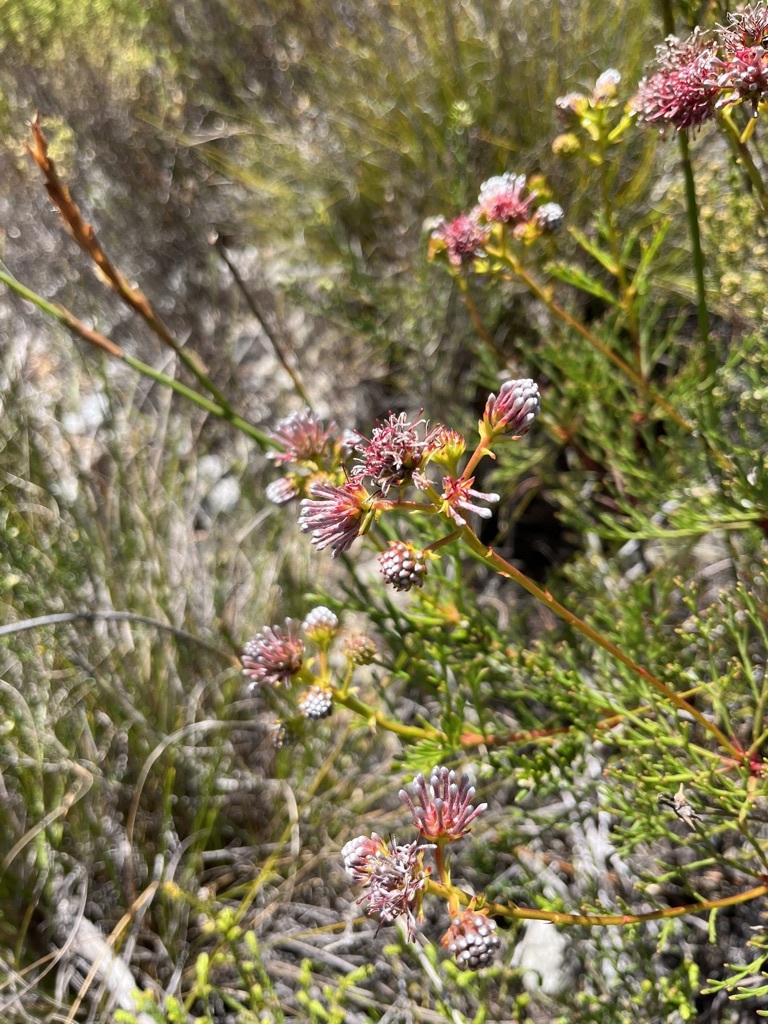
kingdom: Plantae
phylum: Tracheophyta
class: Magnoliopsida
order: Proteales
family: Proteaceae
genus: Serruria
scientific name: Serruria elongata
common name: Long-stalk spiderhead
